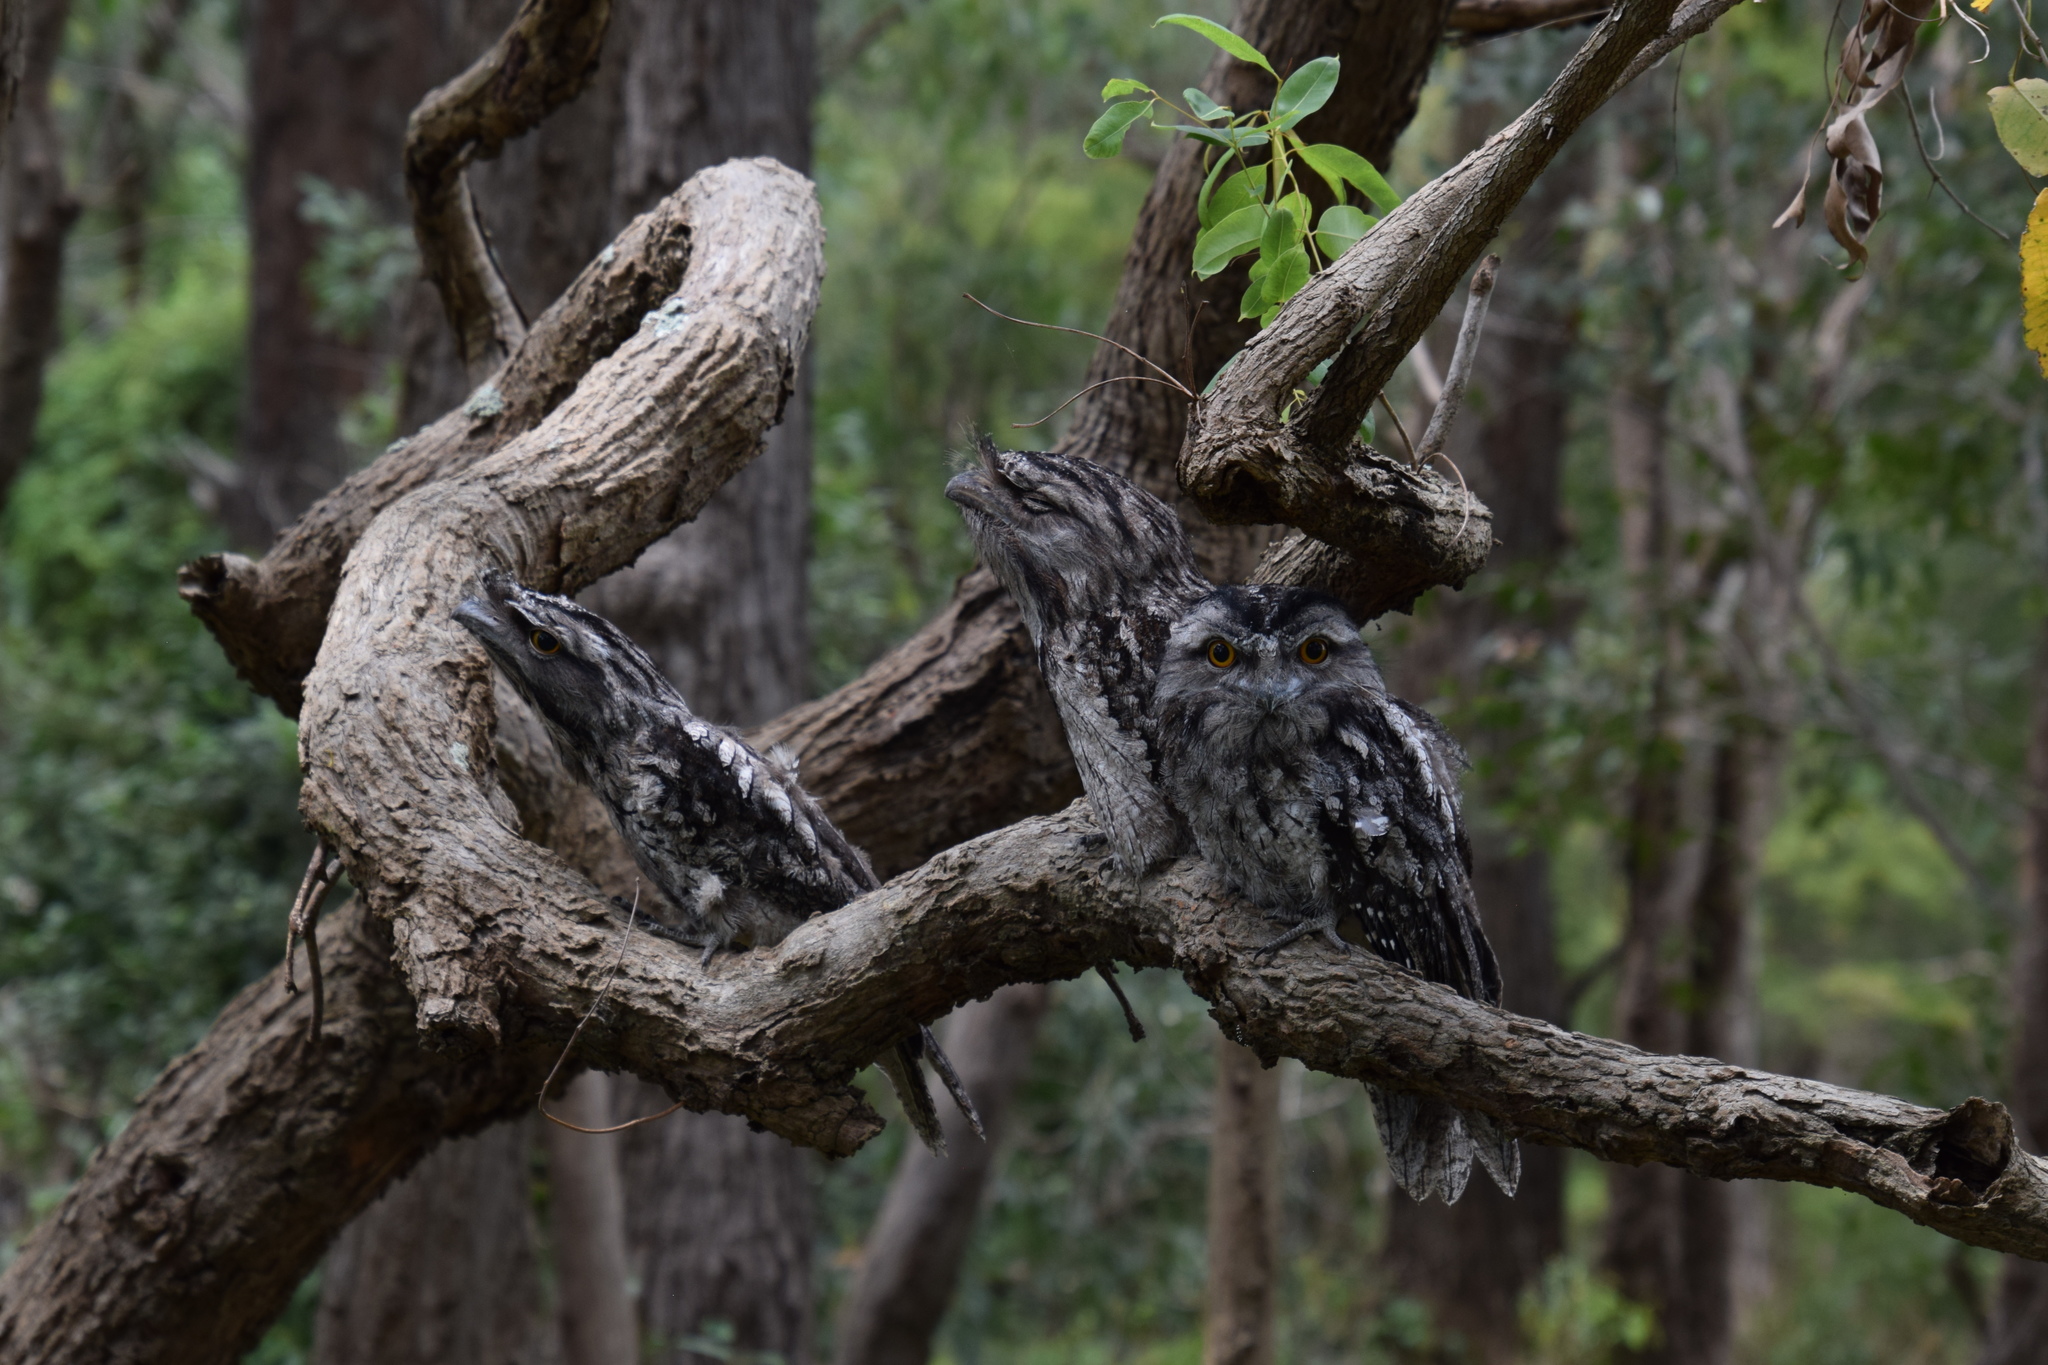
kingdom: Animalia
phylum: Chordata
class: Aves
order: Caprimulgiformes
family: Podargidae
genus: Podargus
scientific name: Podargus strigoides
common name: Tawny frogmouth
